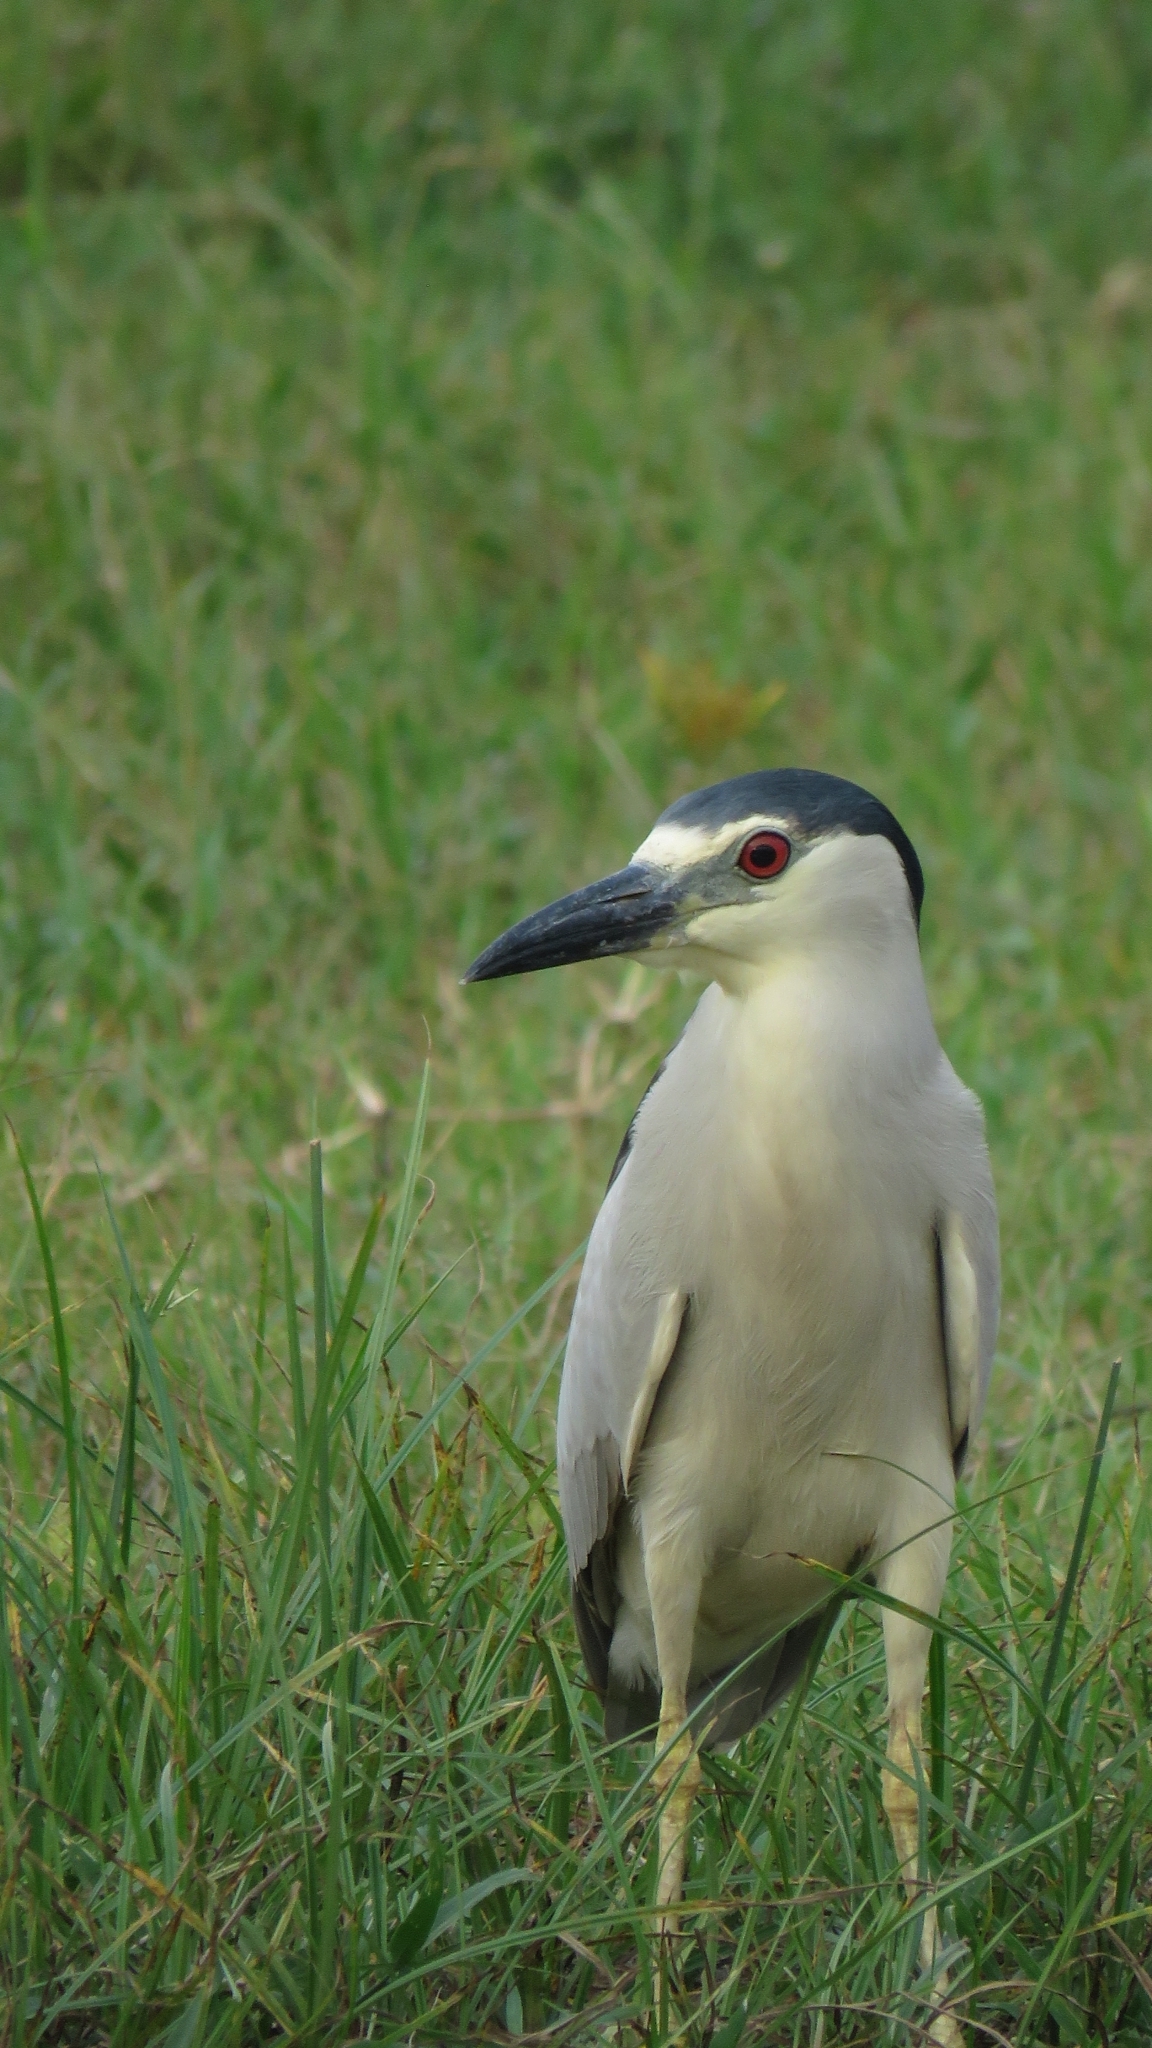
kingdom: Animalia
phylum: Chordata
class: Aves
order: Pelecaniformes
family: Ardeidae
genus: Nycticorax
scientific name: Nycticorax nycticorax
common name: Black-crowned night heron
